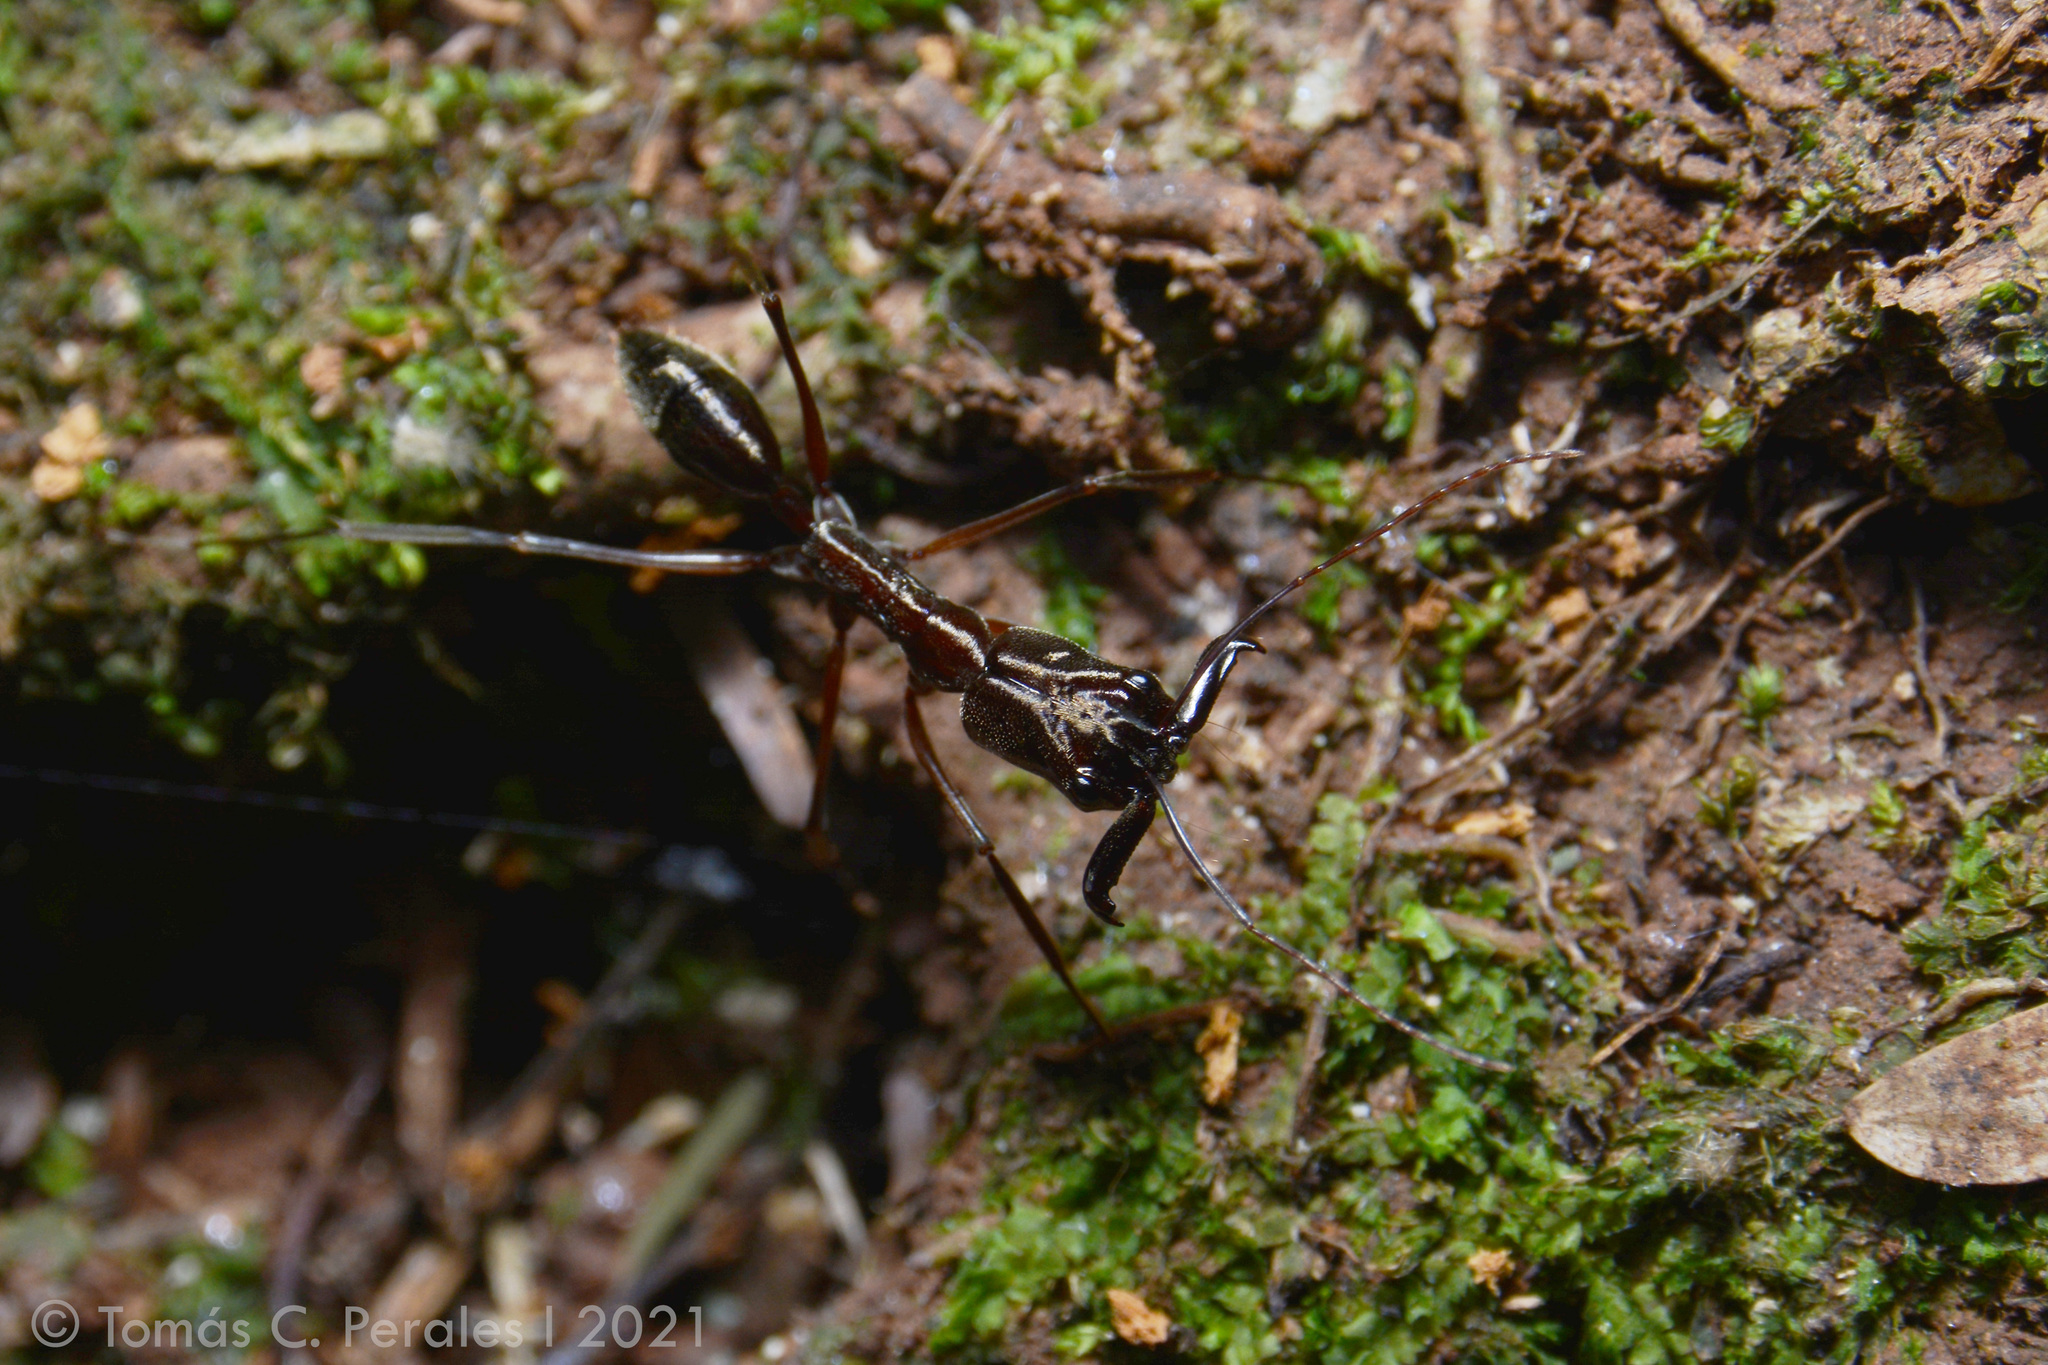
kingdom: Animalia
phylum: Arthropoda
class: Insecta
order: Hymenoptera
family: Formicidae
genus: Odontomachus
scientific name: Odontomachus chelifer
